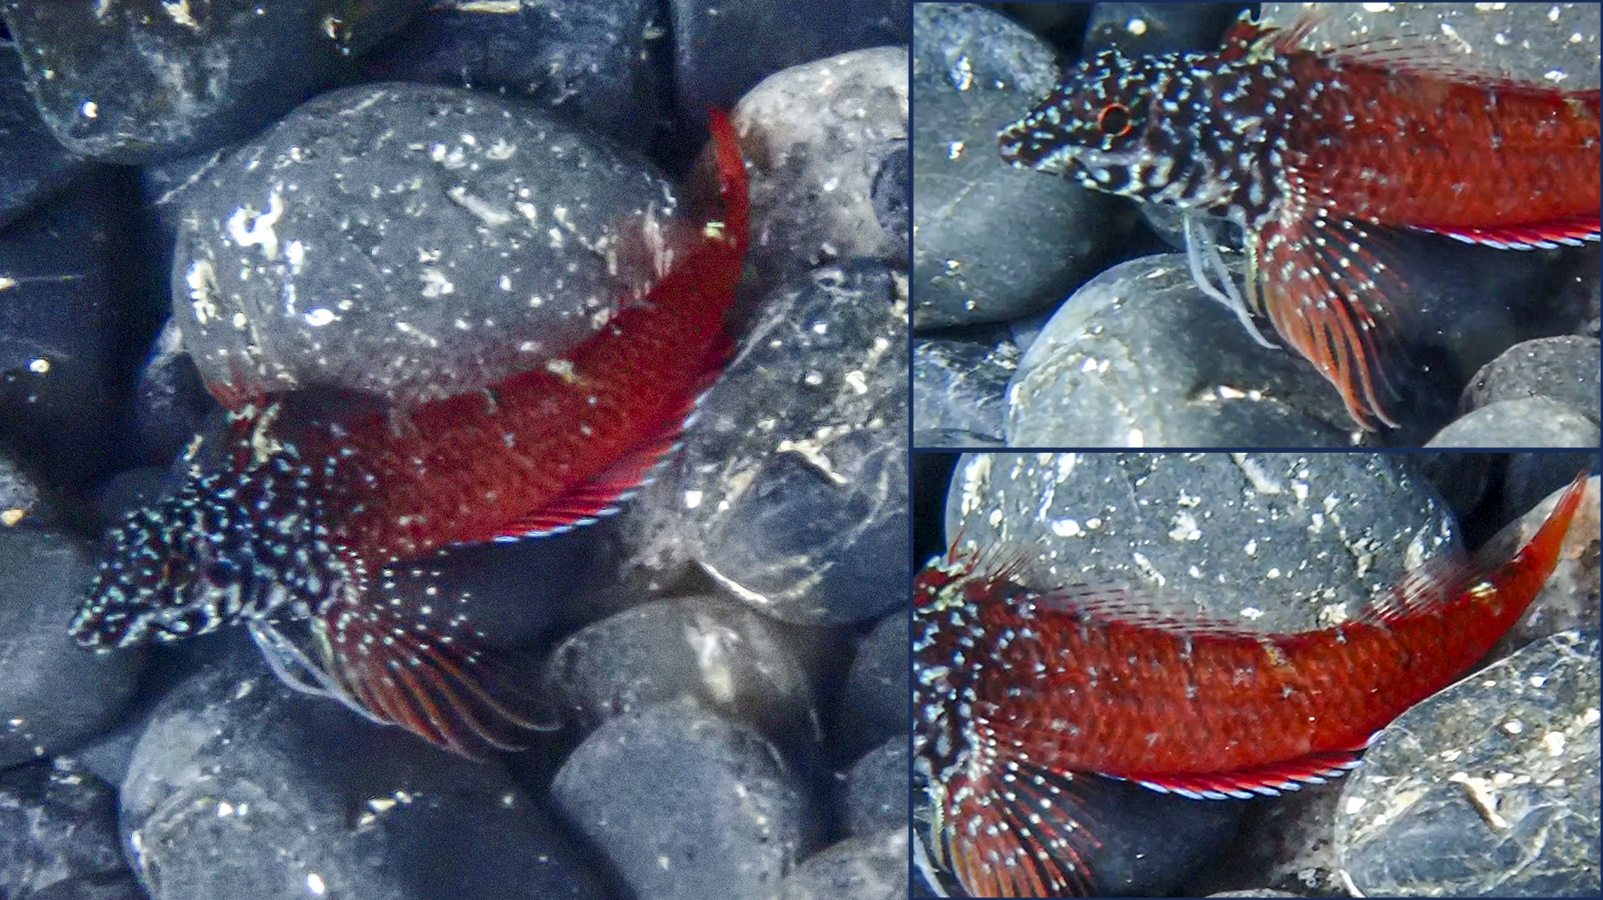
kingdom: Animalia
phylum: Chordata
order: Perciformes
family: Tripterygiidae
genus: Tripterygion
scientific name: Tripterygion melanurum
